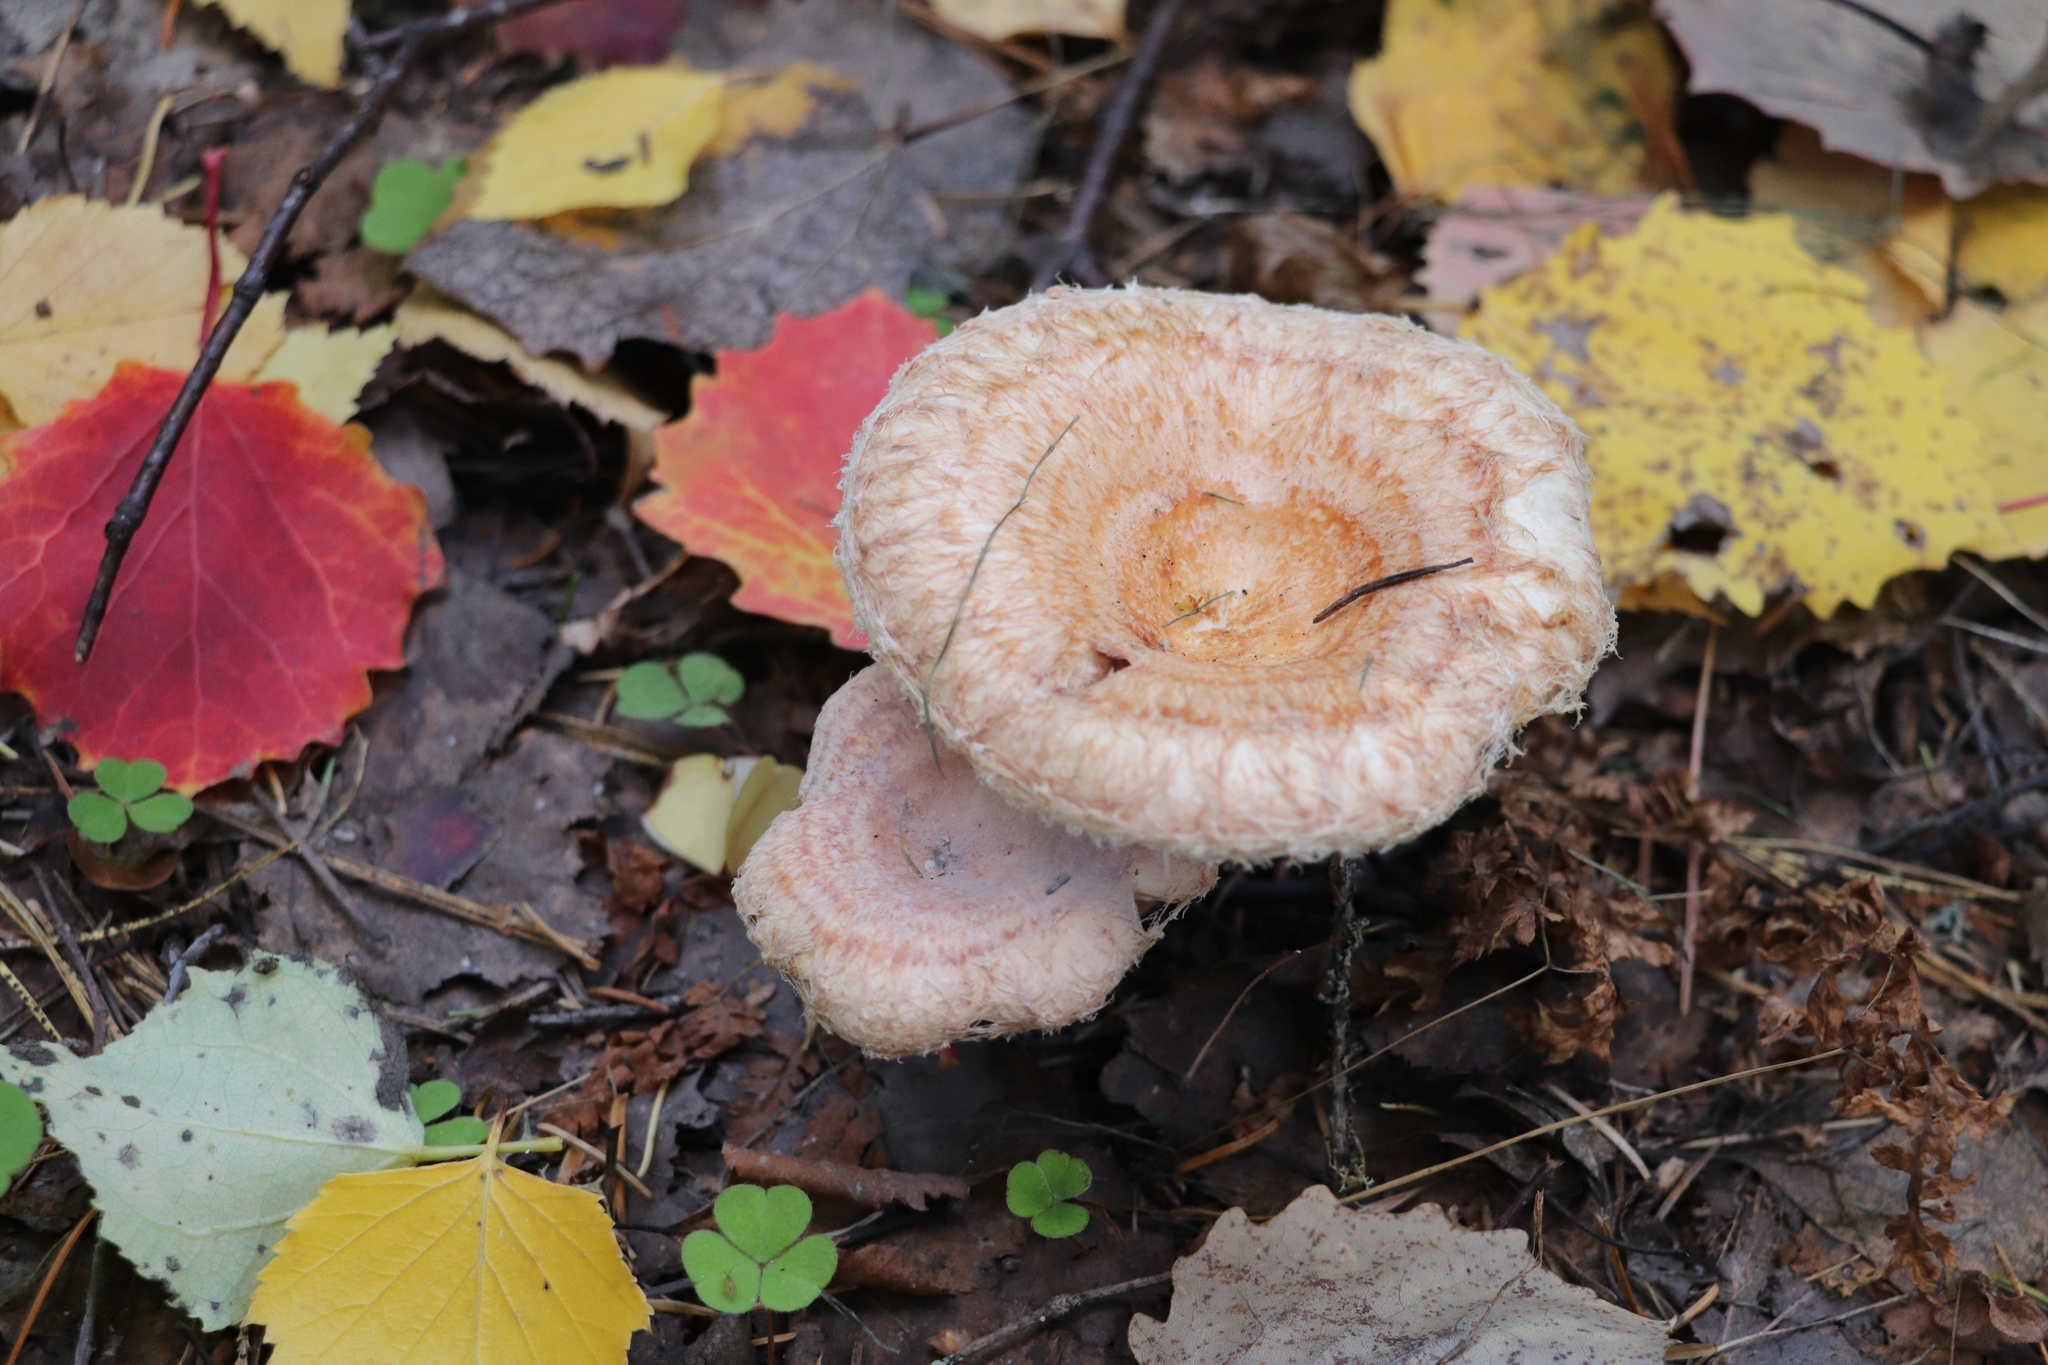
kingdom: Fungi
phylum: Basidiomycota
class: Agaricomycetes
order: Russulales
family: Russulaceae
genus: Lactarius
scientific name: Lactarius torminosus
